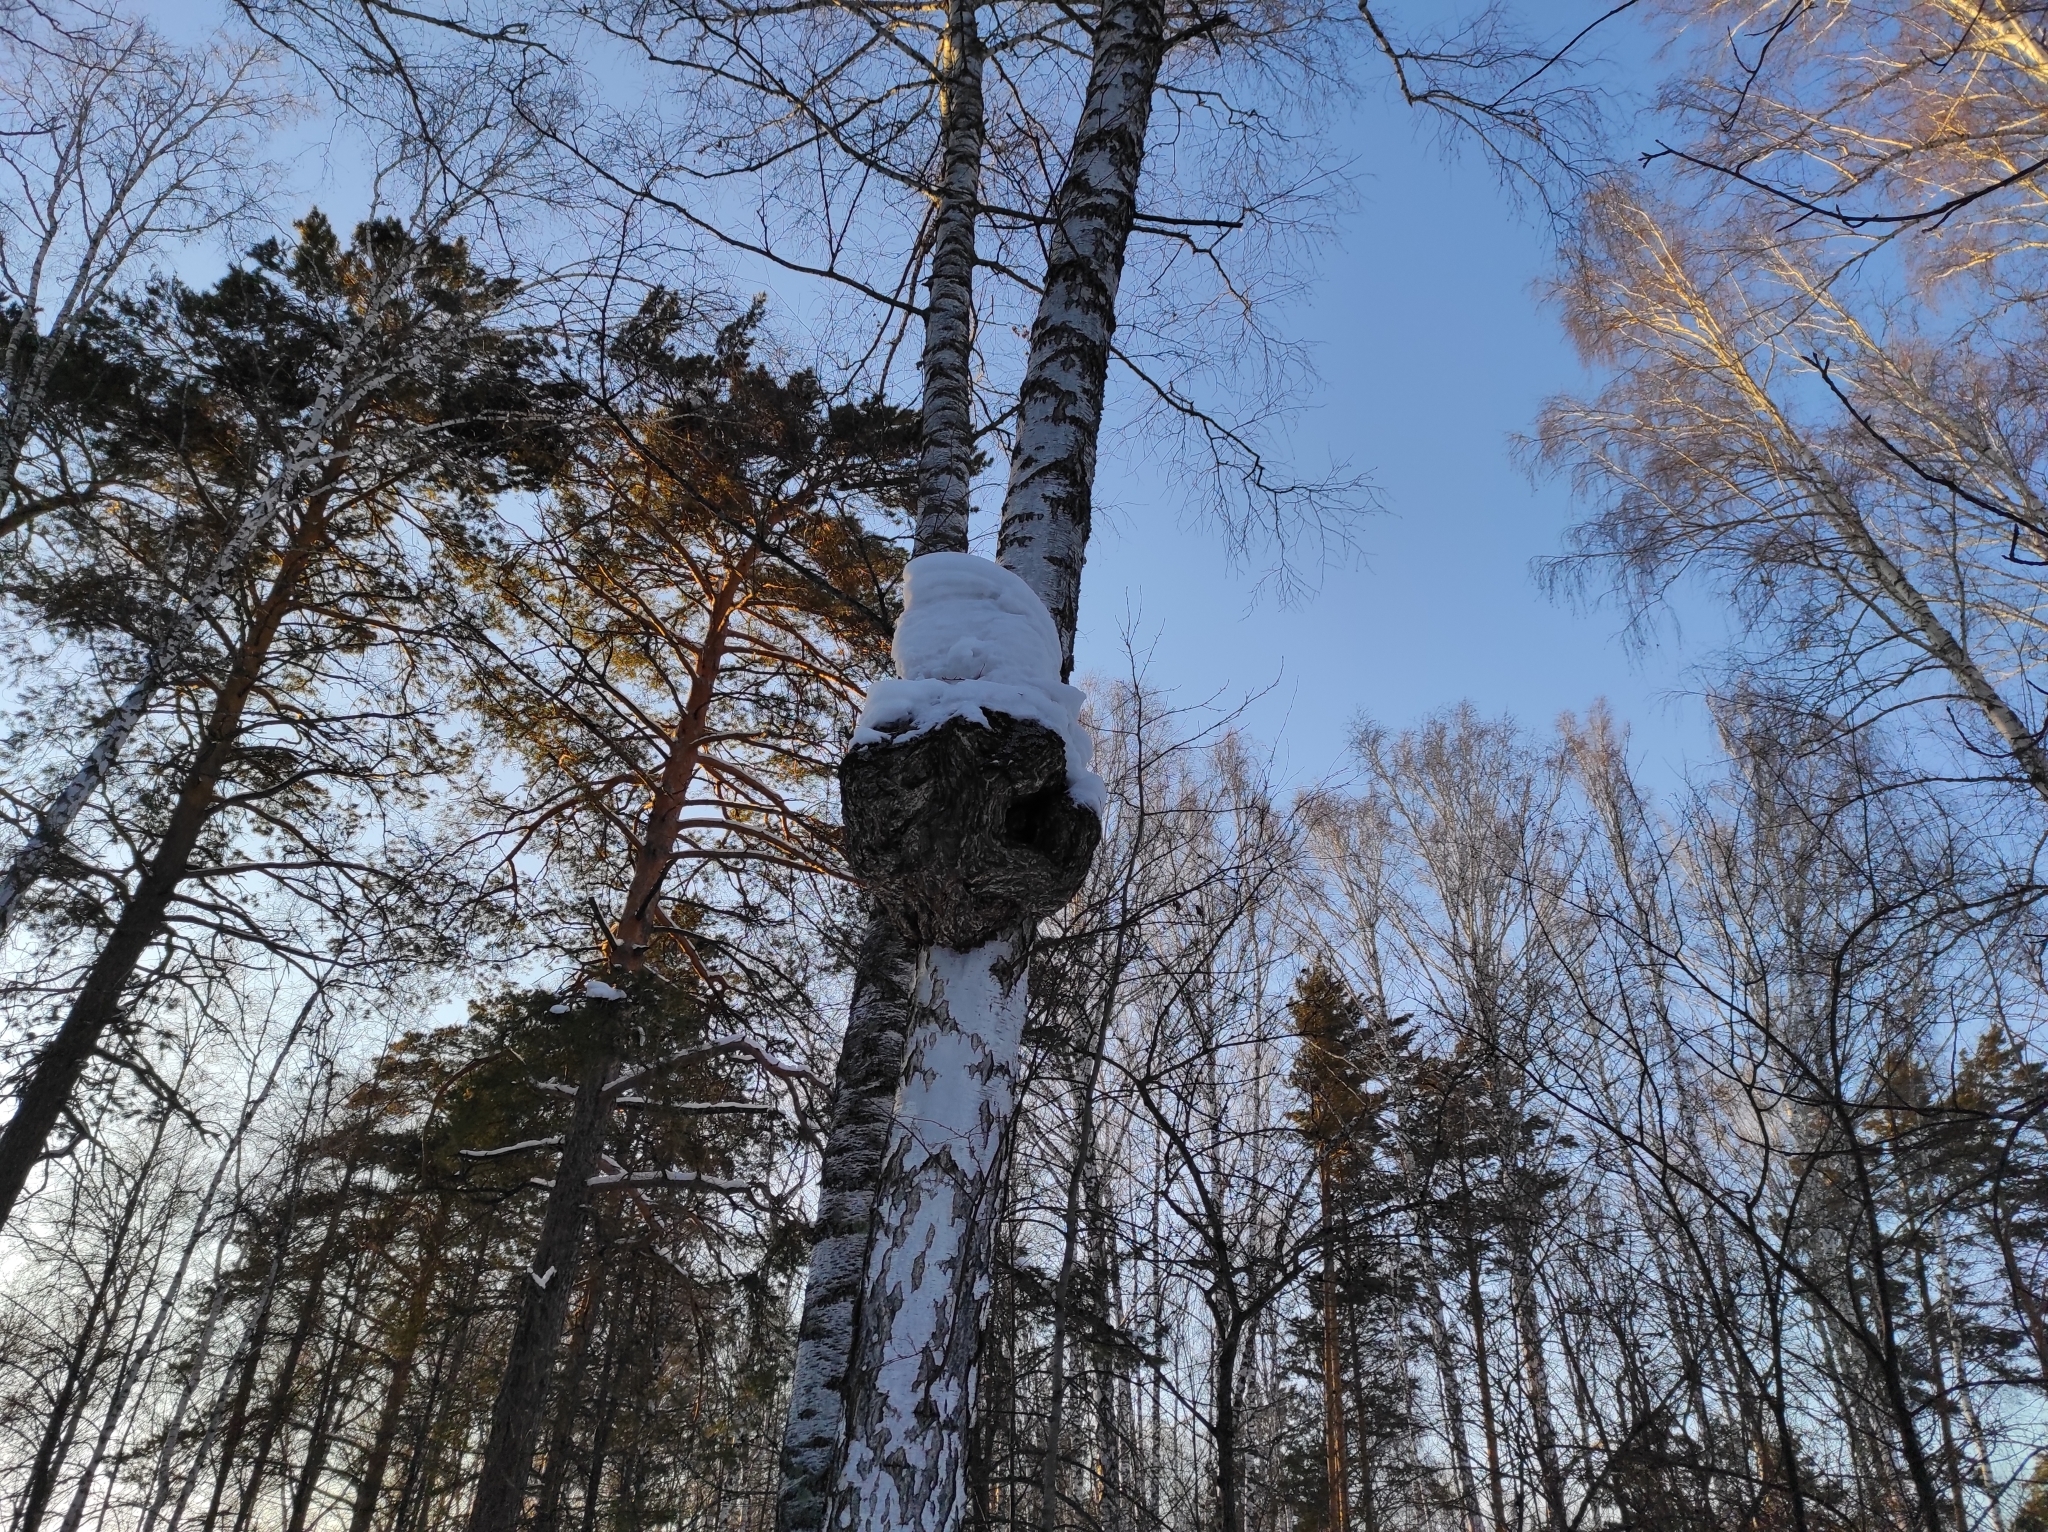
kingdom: Plantae
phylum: Tracheophyta
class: Magnoliopsida
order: Fagales
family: Betulaceae
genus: Betula
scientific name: Betula pendula
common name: Silver birch
